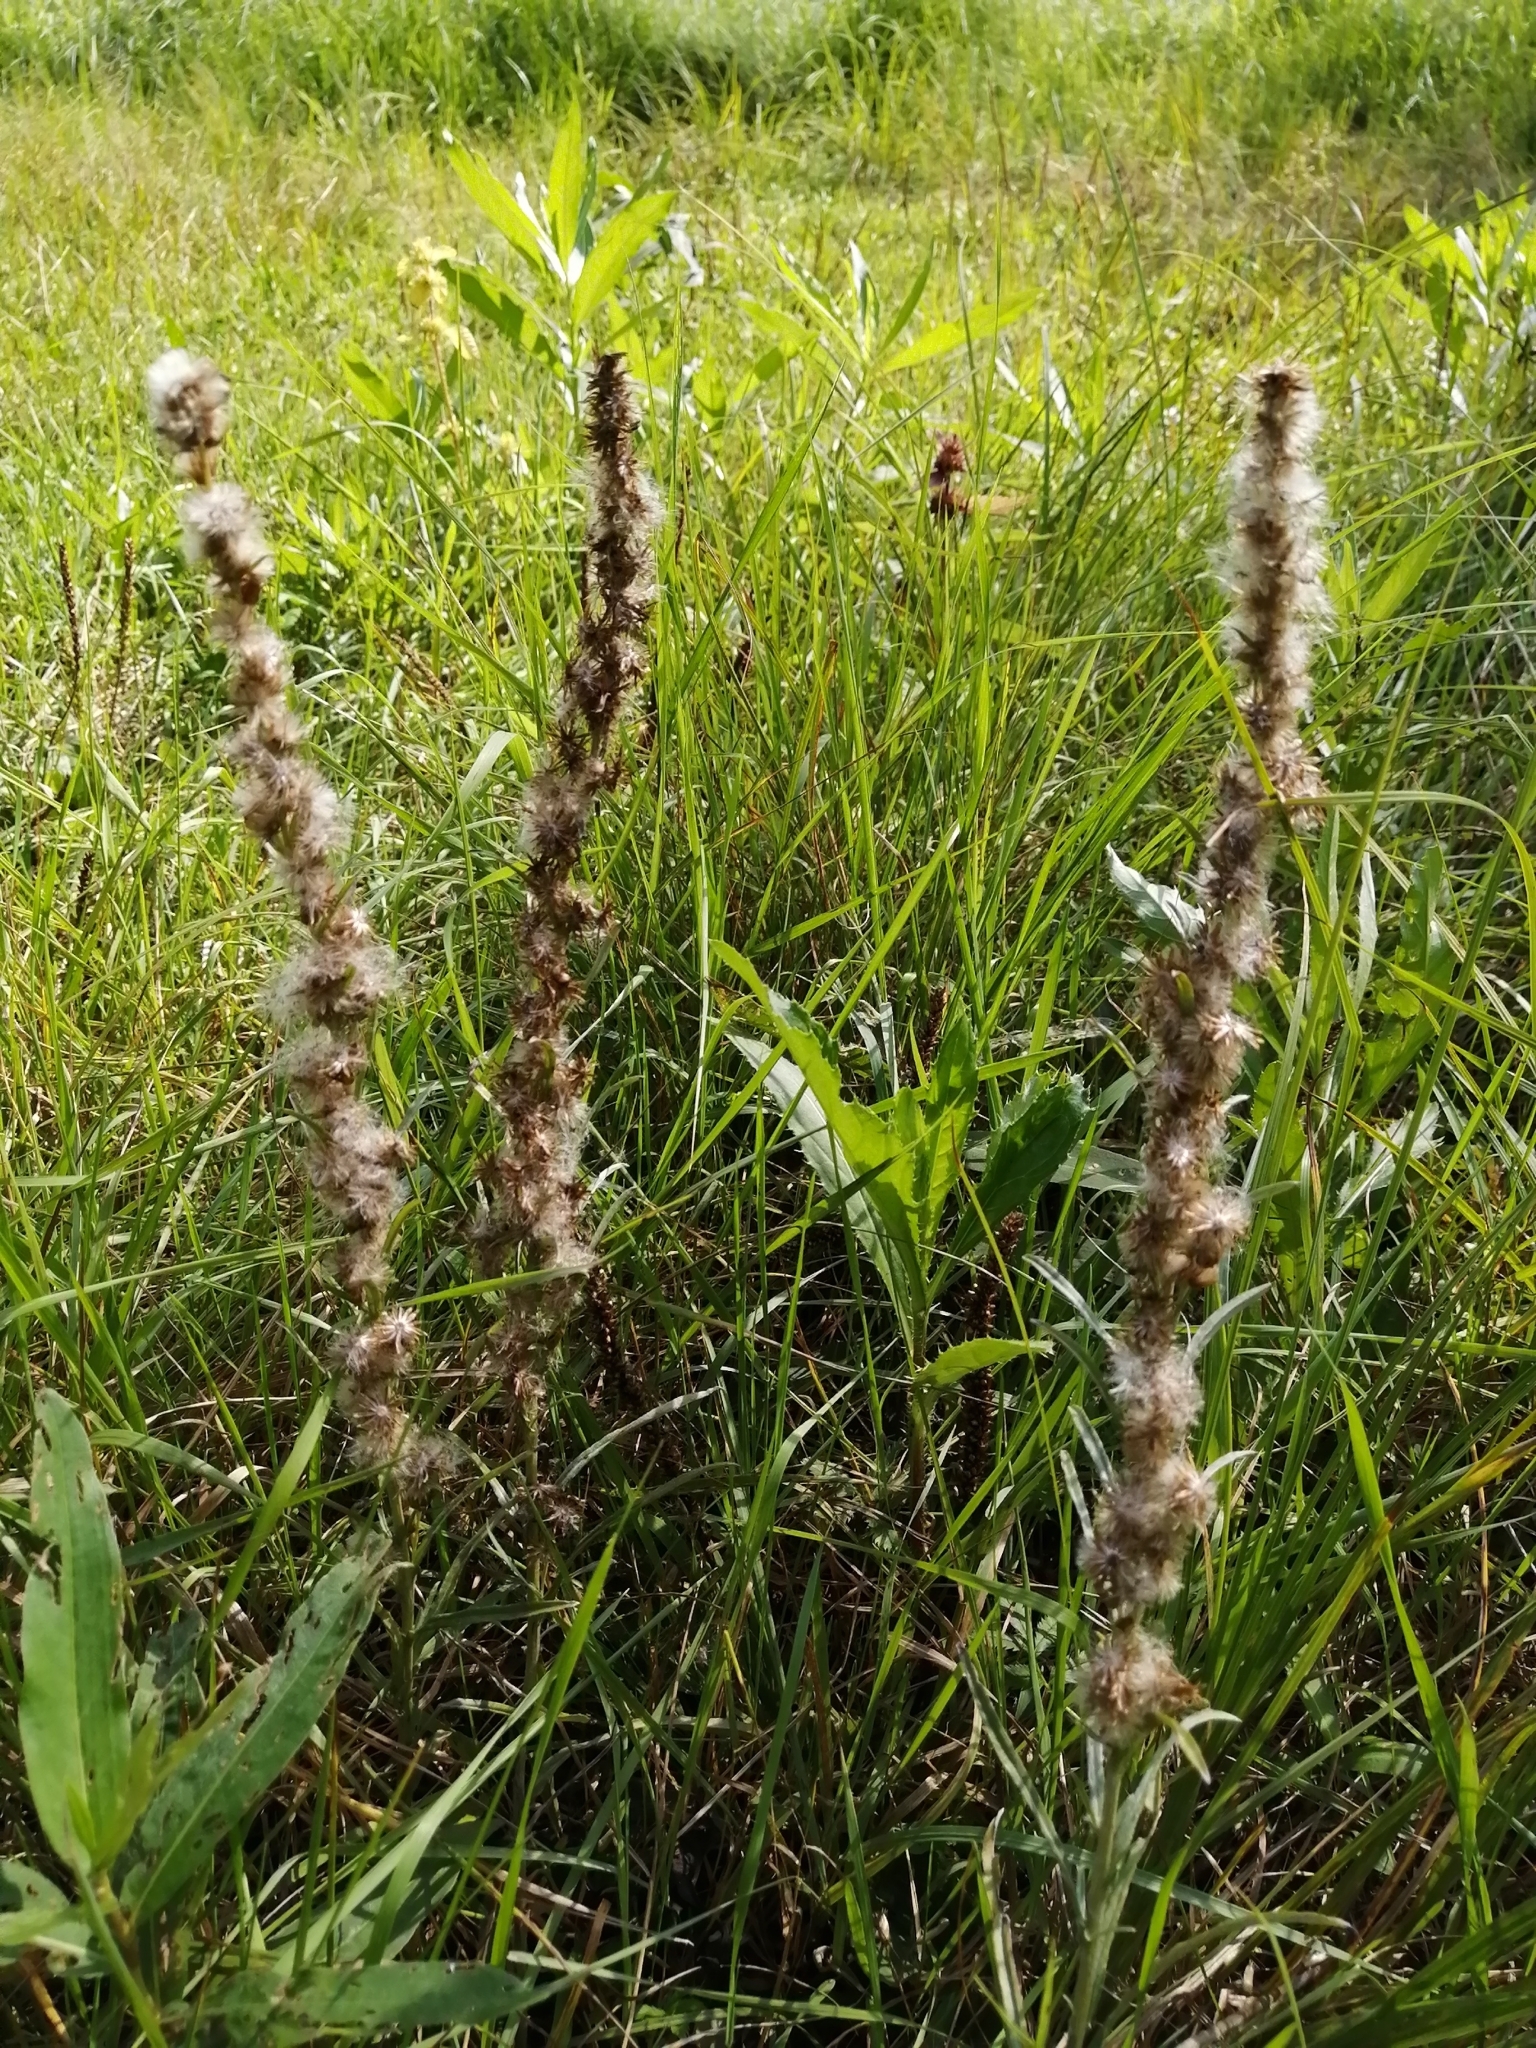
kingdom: Plantae
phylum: Tracheophyta
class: Magnoliopsida
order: Asterales
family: Asteraceae
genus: Omalotheca
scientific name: Omalotheca sylvatica
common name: Heath cudweed
